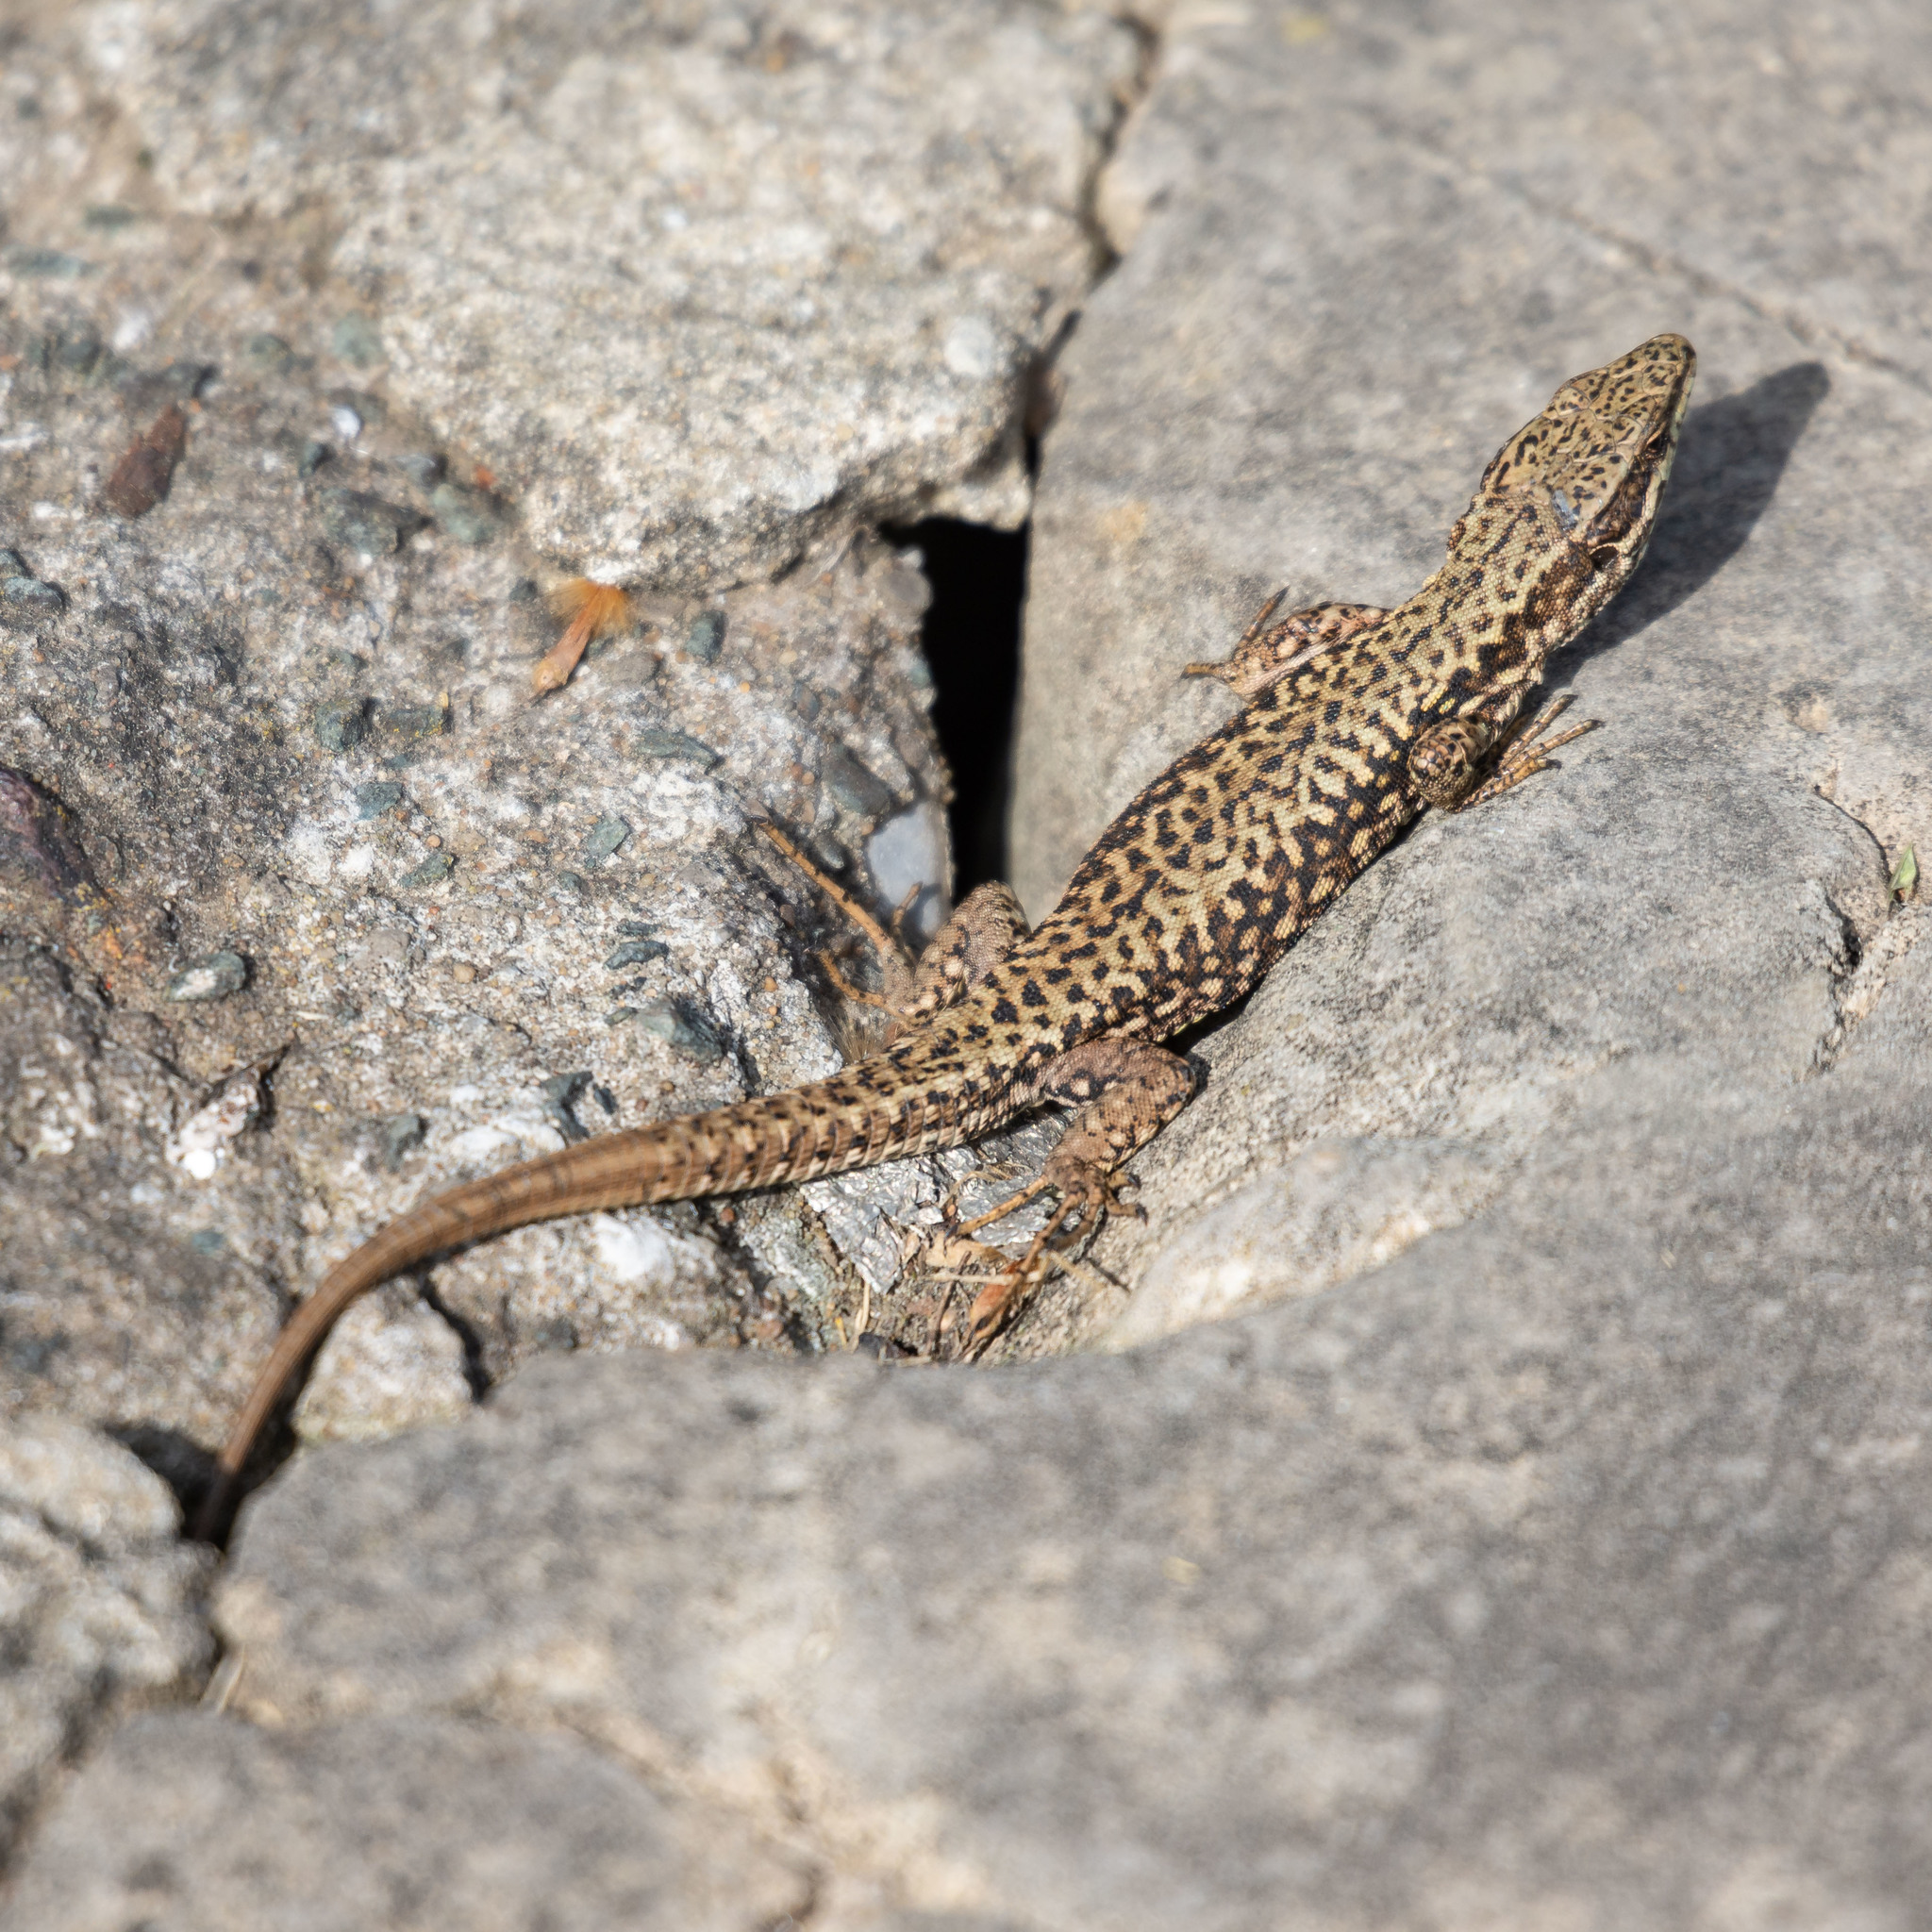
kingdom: Animalia
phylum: Chordata
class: Squamata
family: Lacertidae
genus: Podarcis
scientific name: Podarcis muralis
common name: Common wall lizard
